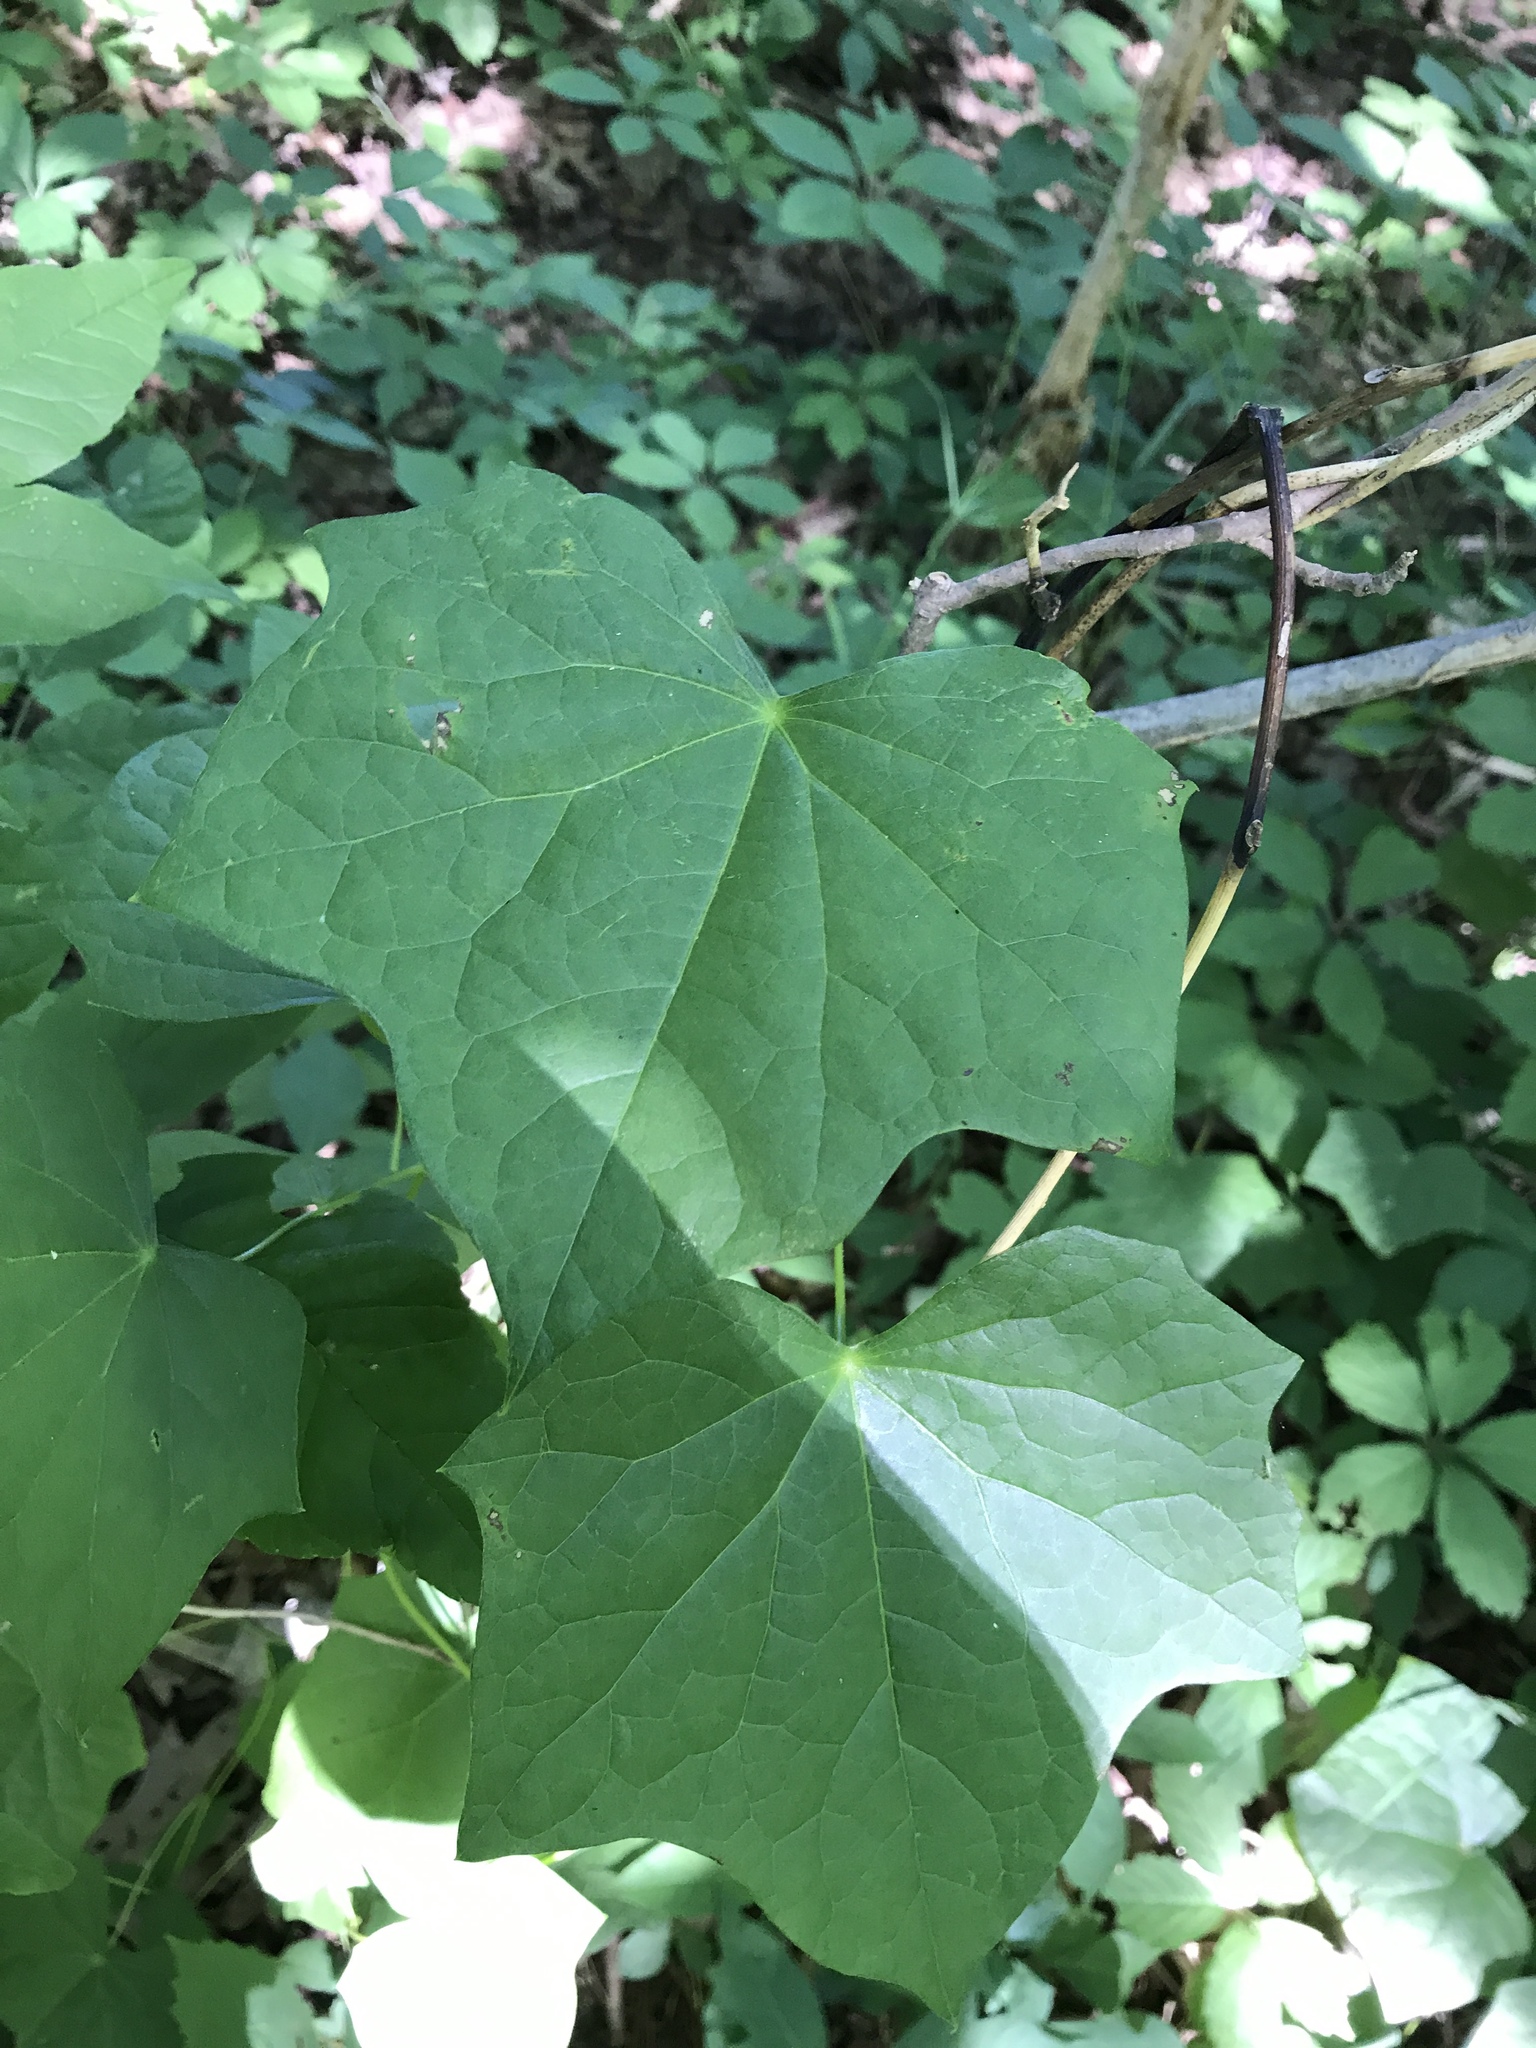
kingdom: Plantae
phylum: Tracheophyta
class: Magnoliopsida
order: Ranunculales
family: Menispermaceae
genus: Menispermum
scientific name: Menispermum canadense
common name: Moonseed
